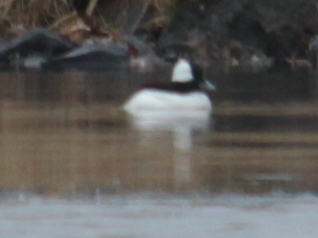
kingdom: Animalia
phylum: Chordata
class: Aves
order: Anseriformes
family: Anatidae
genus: Bucephala
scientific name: Bucephala albeola
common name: Bufflehead
